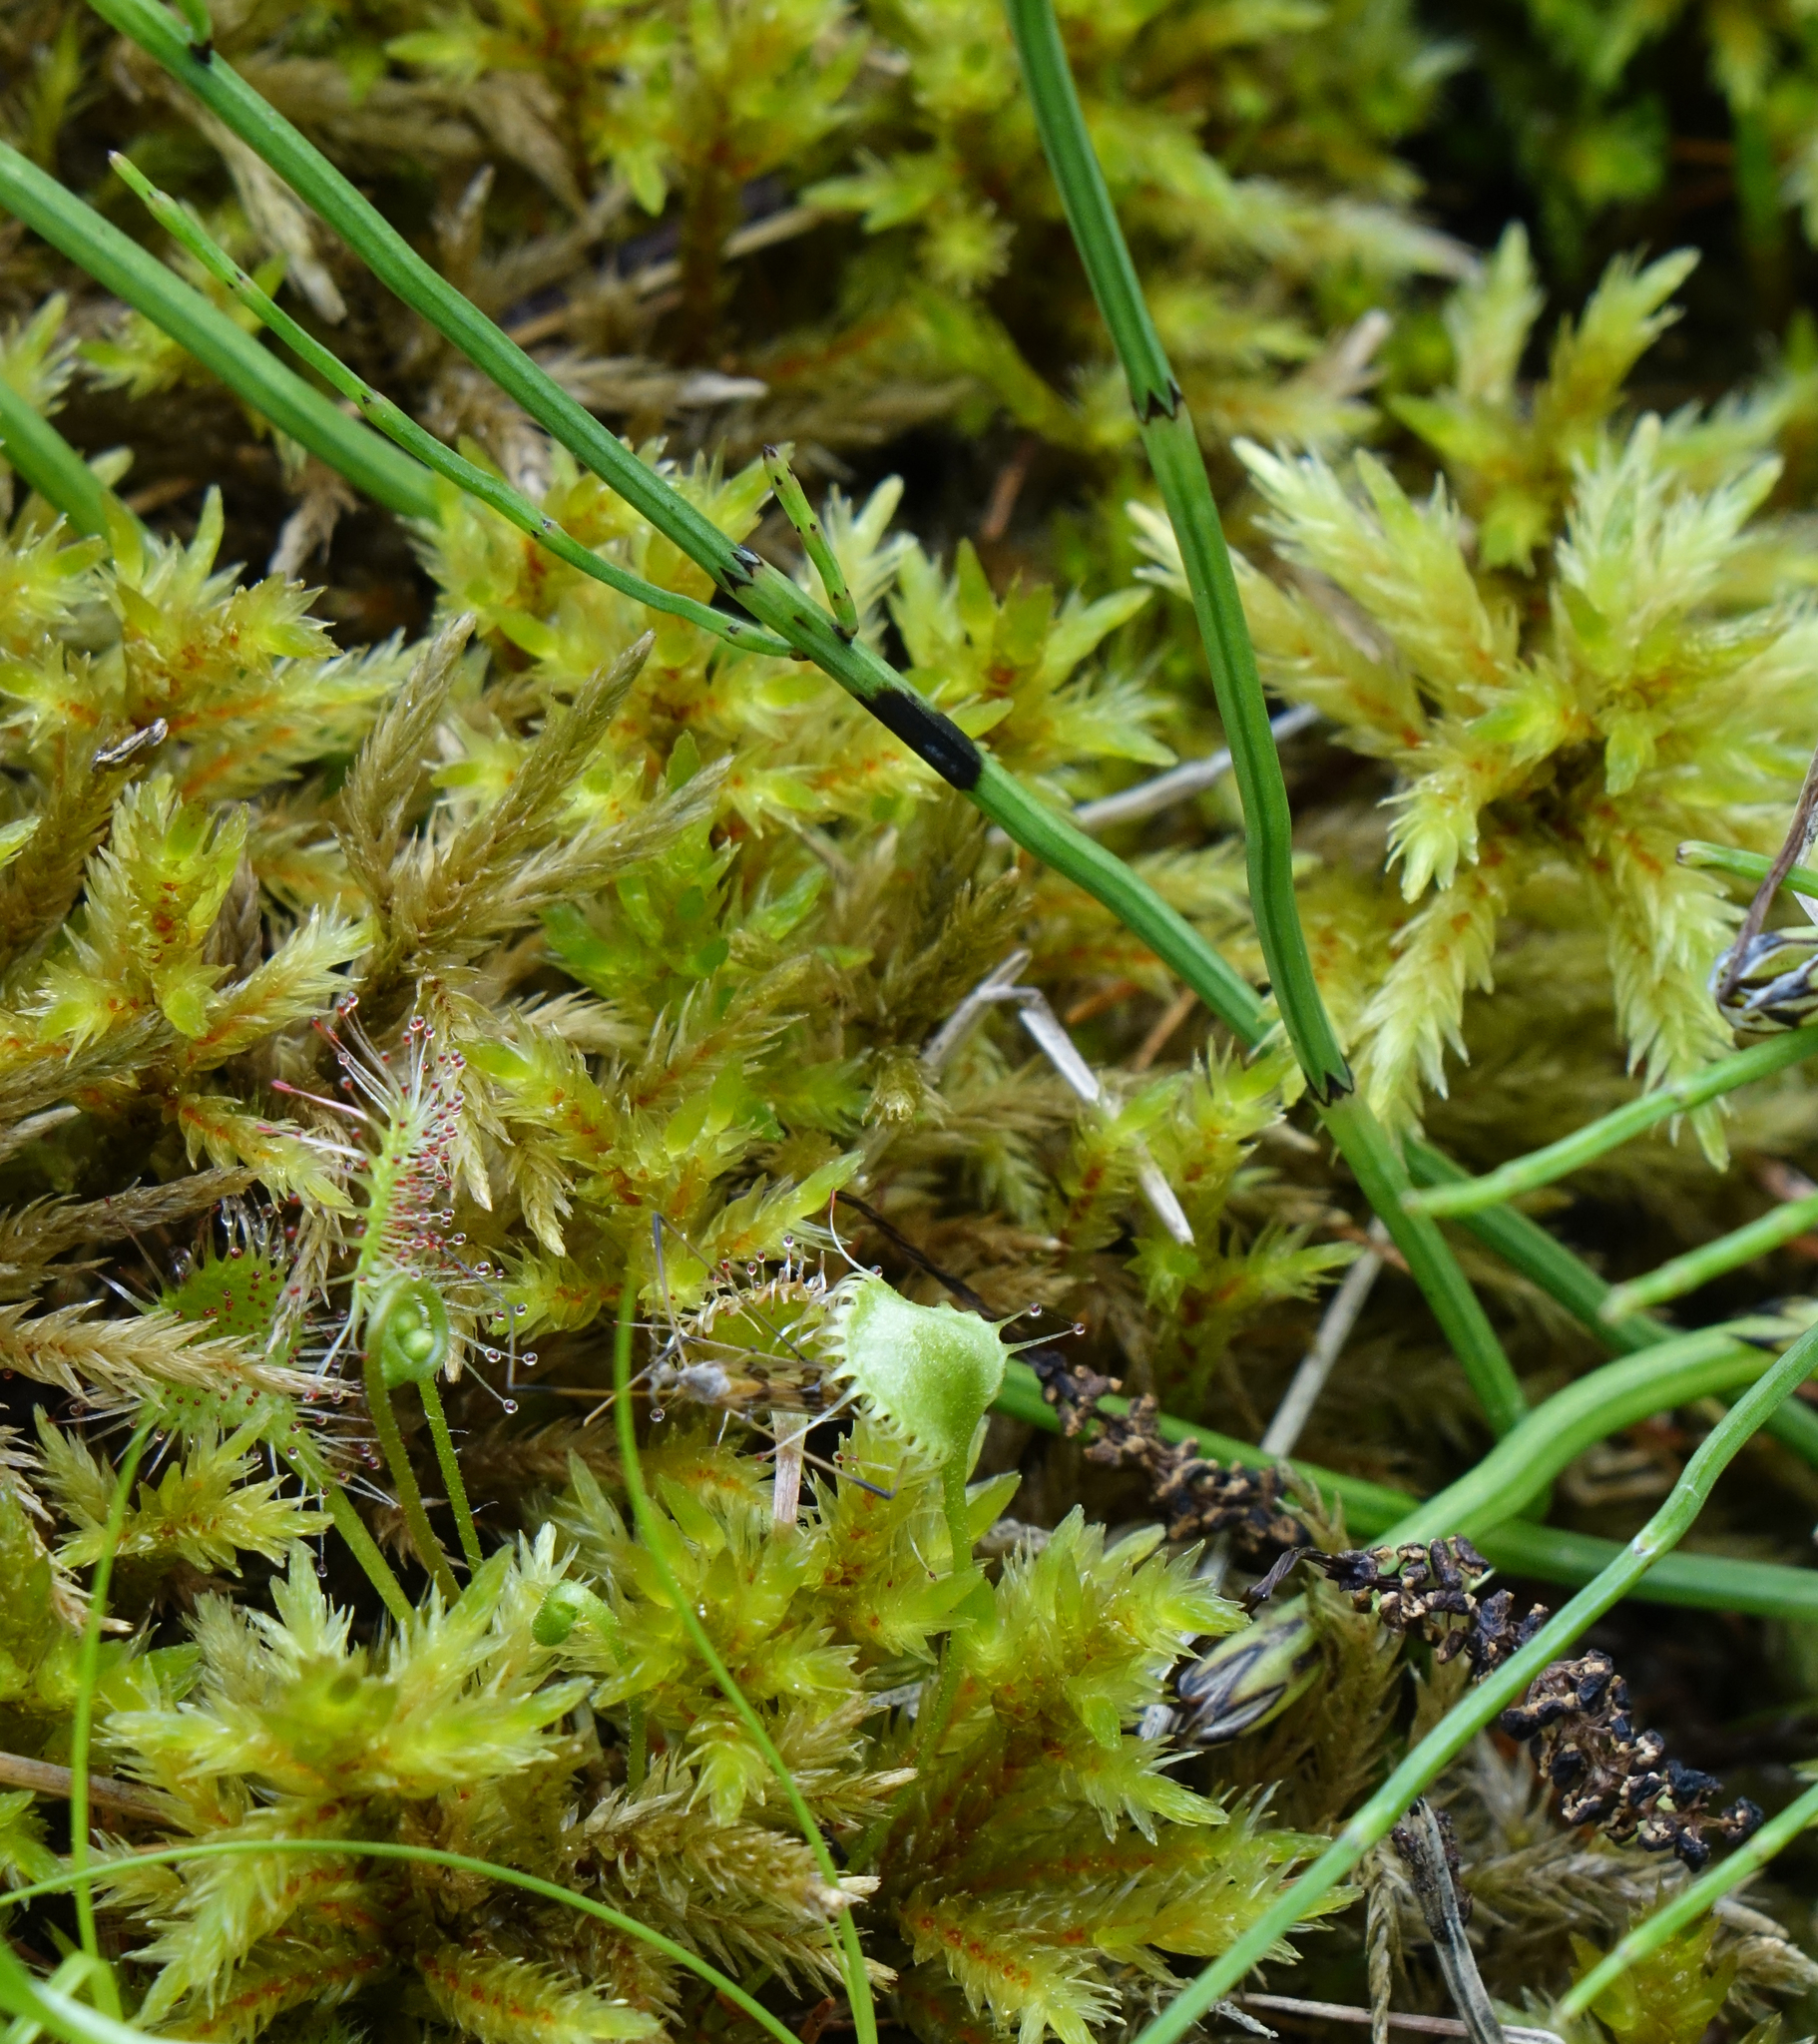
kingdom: Plantae
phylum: Bryophyta
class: Bryopsida
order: Hypnales
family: Climaciaceae
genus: Climacium
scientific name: Climacium dendroides
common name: Northern tree moss
